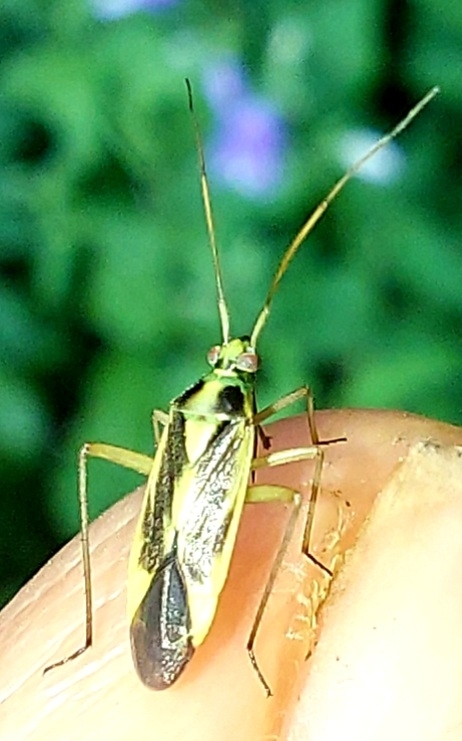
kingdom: Animalia
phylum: Arthropoda
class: Insecta
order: Hemiptera
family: Miridae
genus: Stenotus
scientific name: Stenotus binotatus
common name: Plant bug
